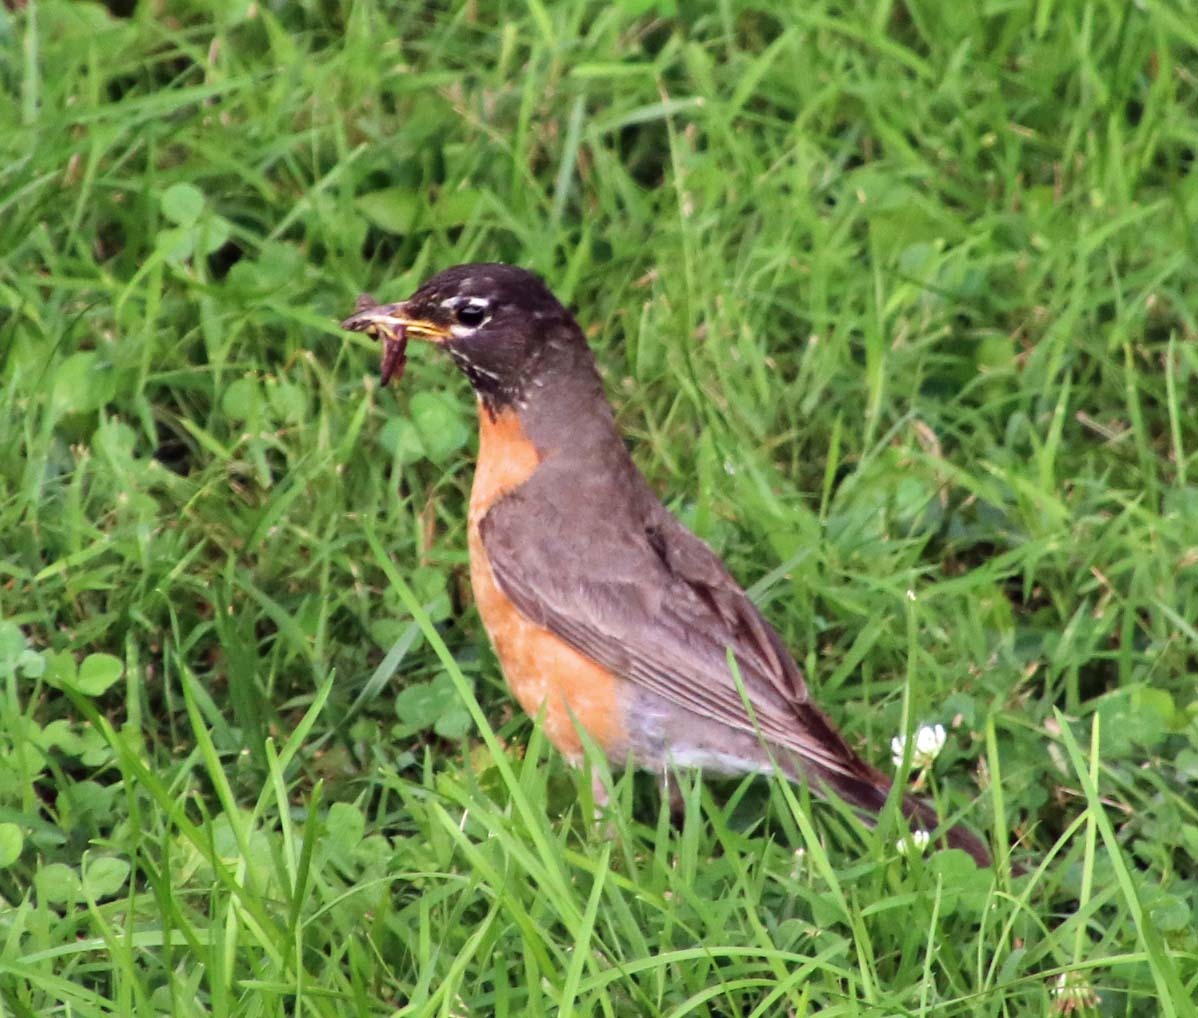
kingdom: Animalia
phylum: Chordata
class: Aves
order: Passeriformes
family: Turdidae
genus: Turdus
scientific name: Turdus migratorius
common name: American robin
